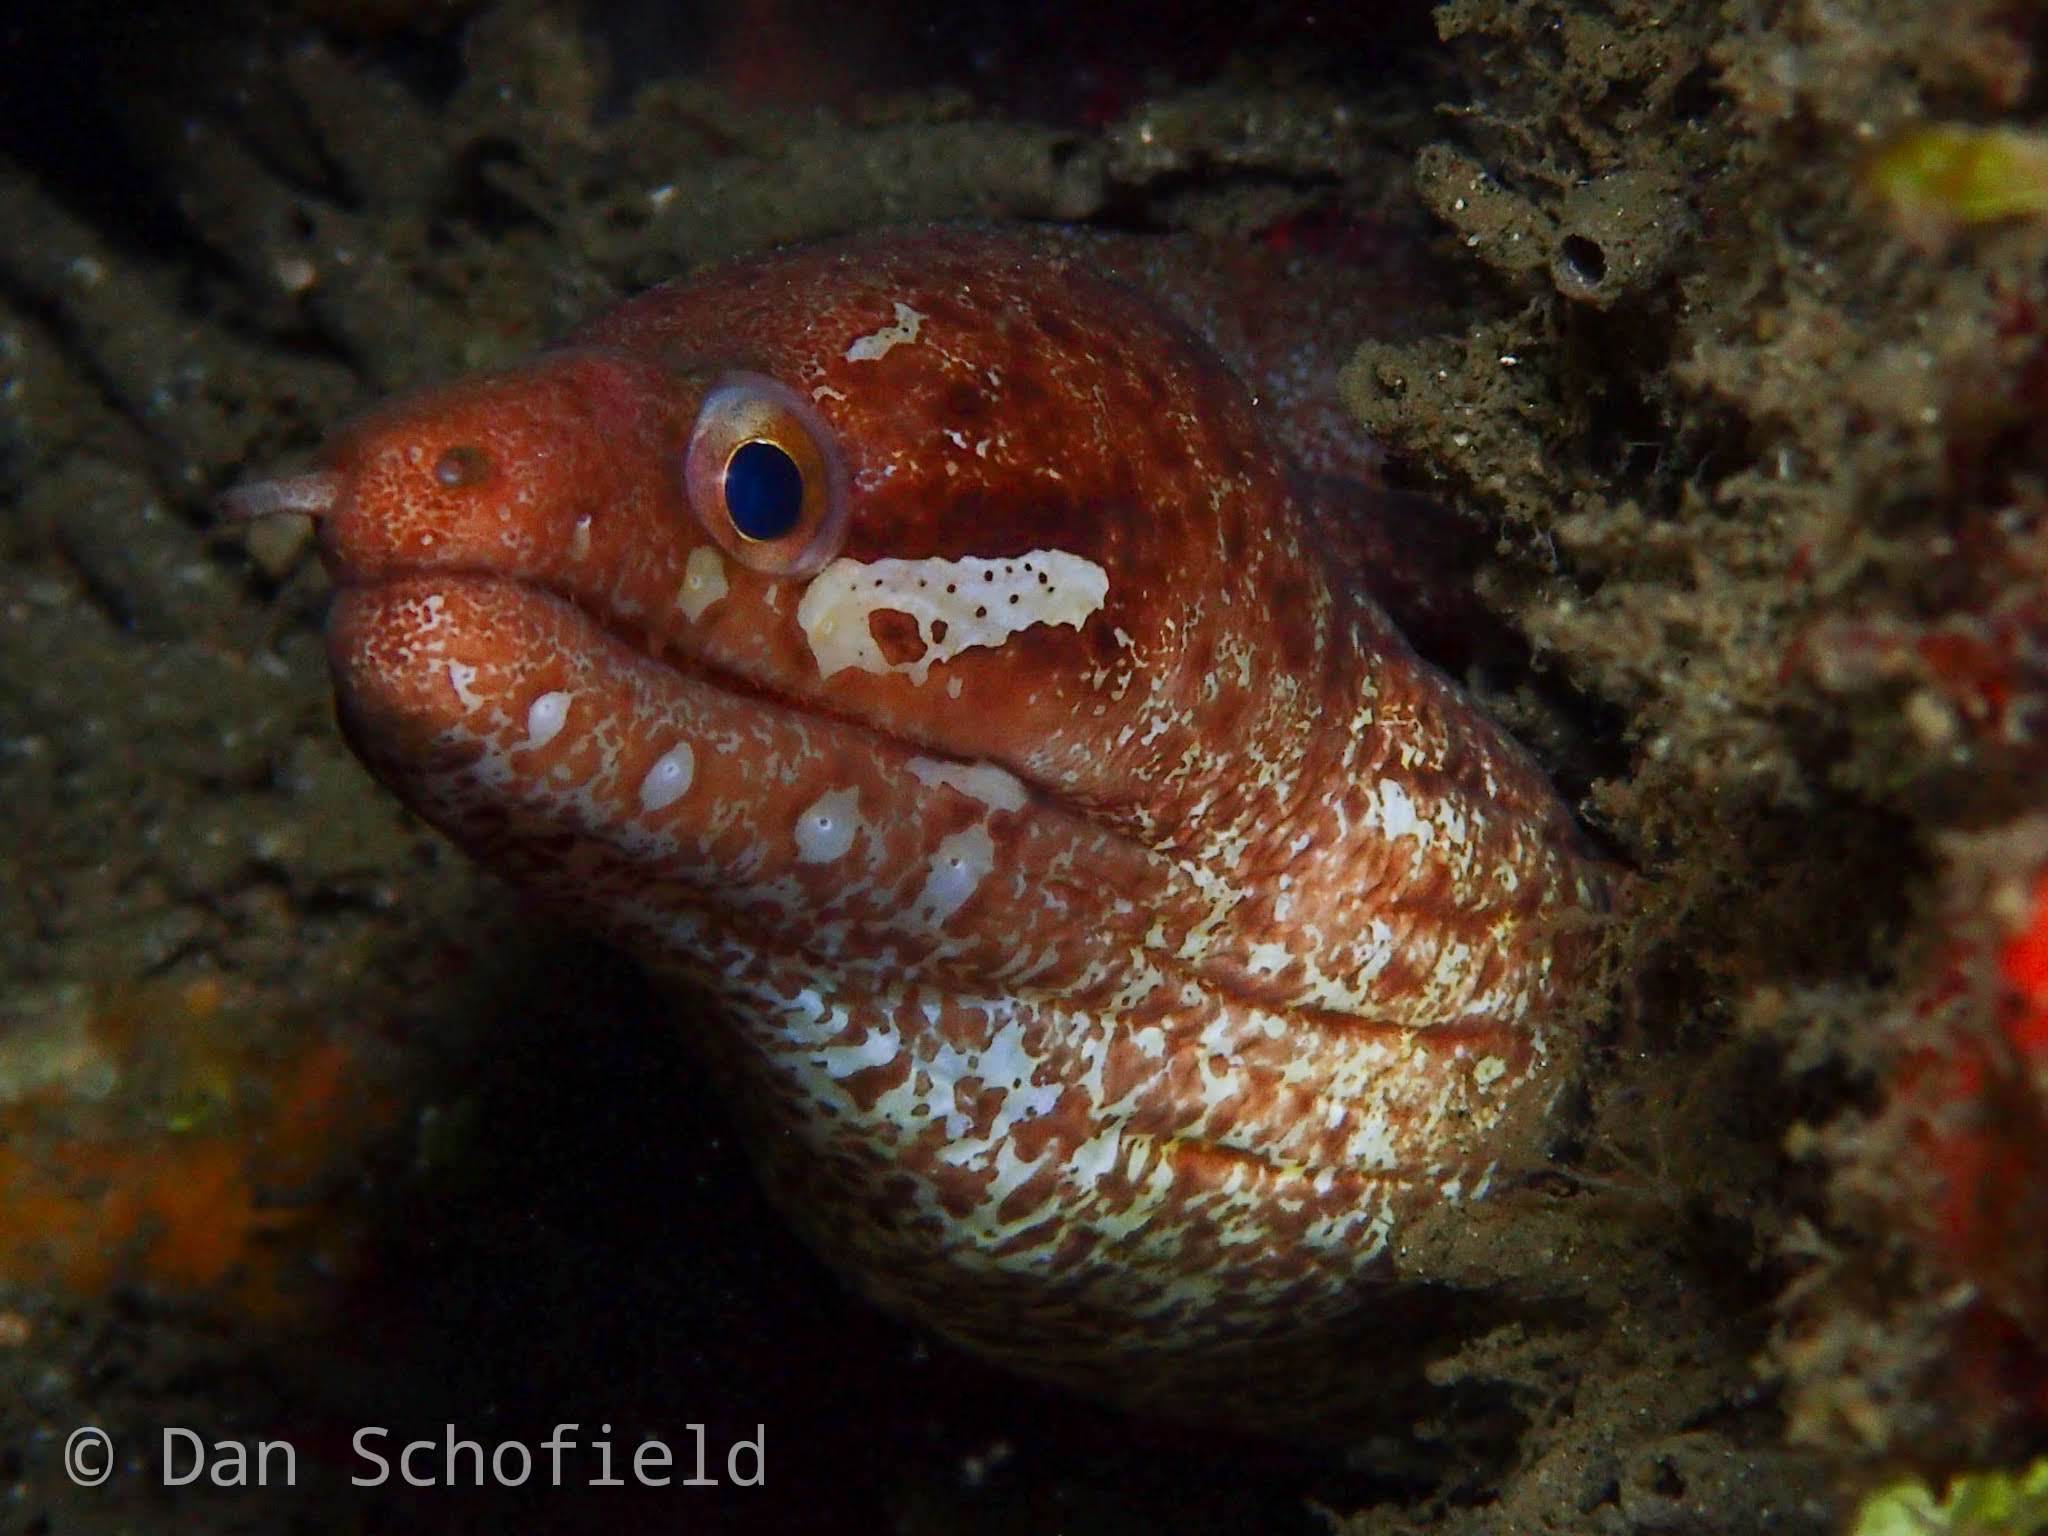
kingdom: Animalia
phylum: Chordata
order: Anguilliformes
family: Muraenidae
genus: Gymnothorax
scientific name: Gymnothorax zonipectis
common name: Bar-tail moray
